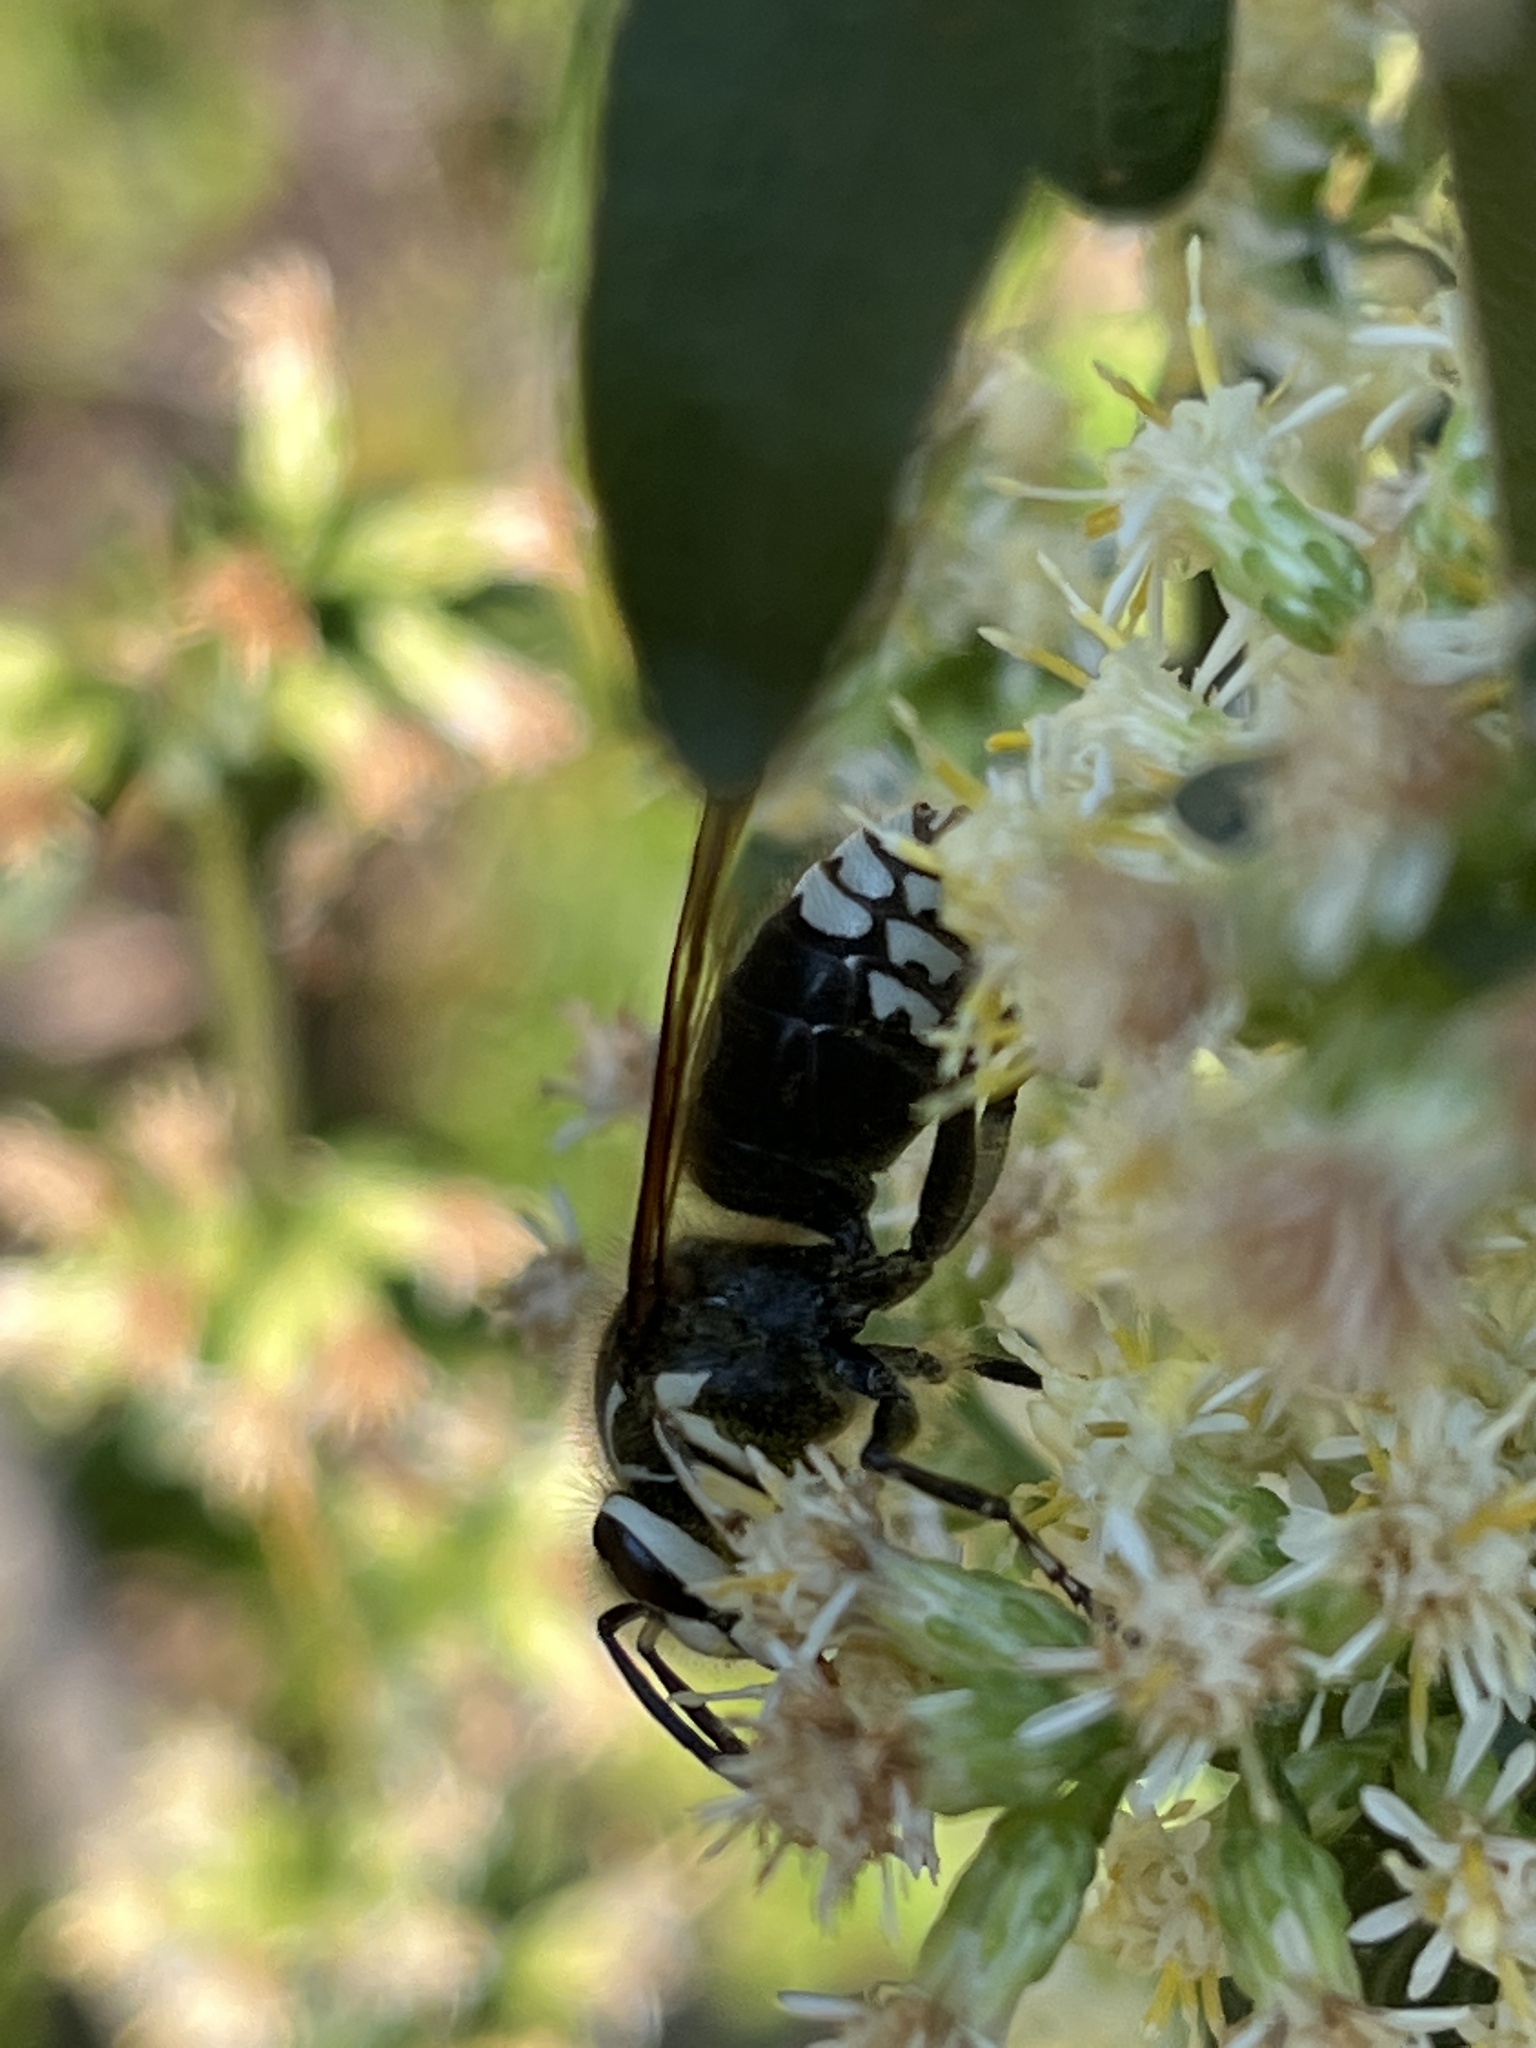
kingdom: Animalia
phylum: Arthropoda
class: Insecta
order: Hymenoptera
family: Vespidae
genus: Dolichovespula
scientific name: Dolichovespula maculata
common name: Bald-faced hornet
